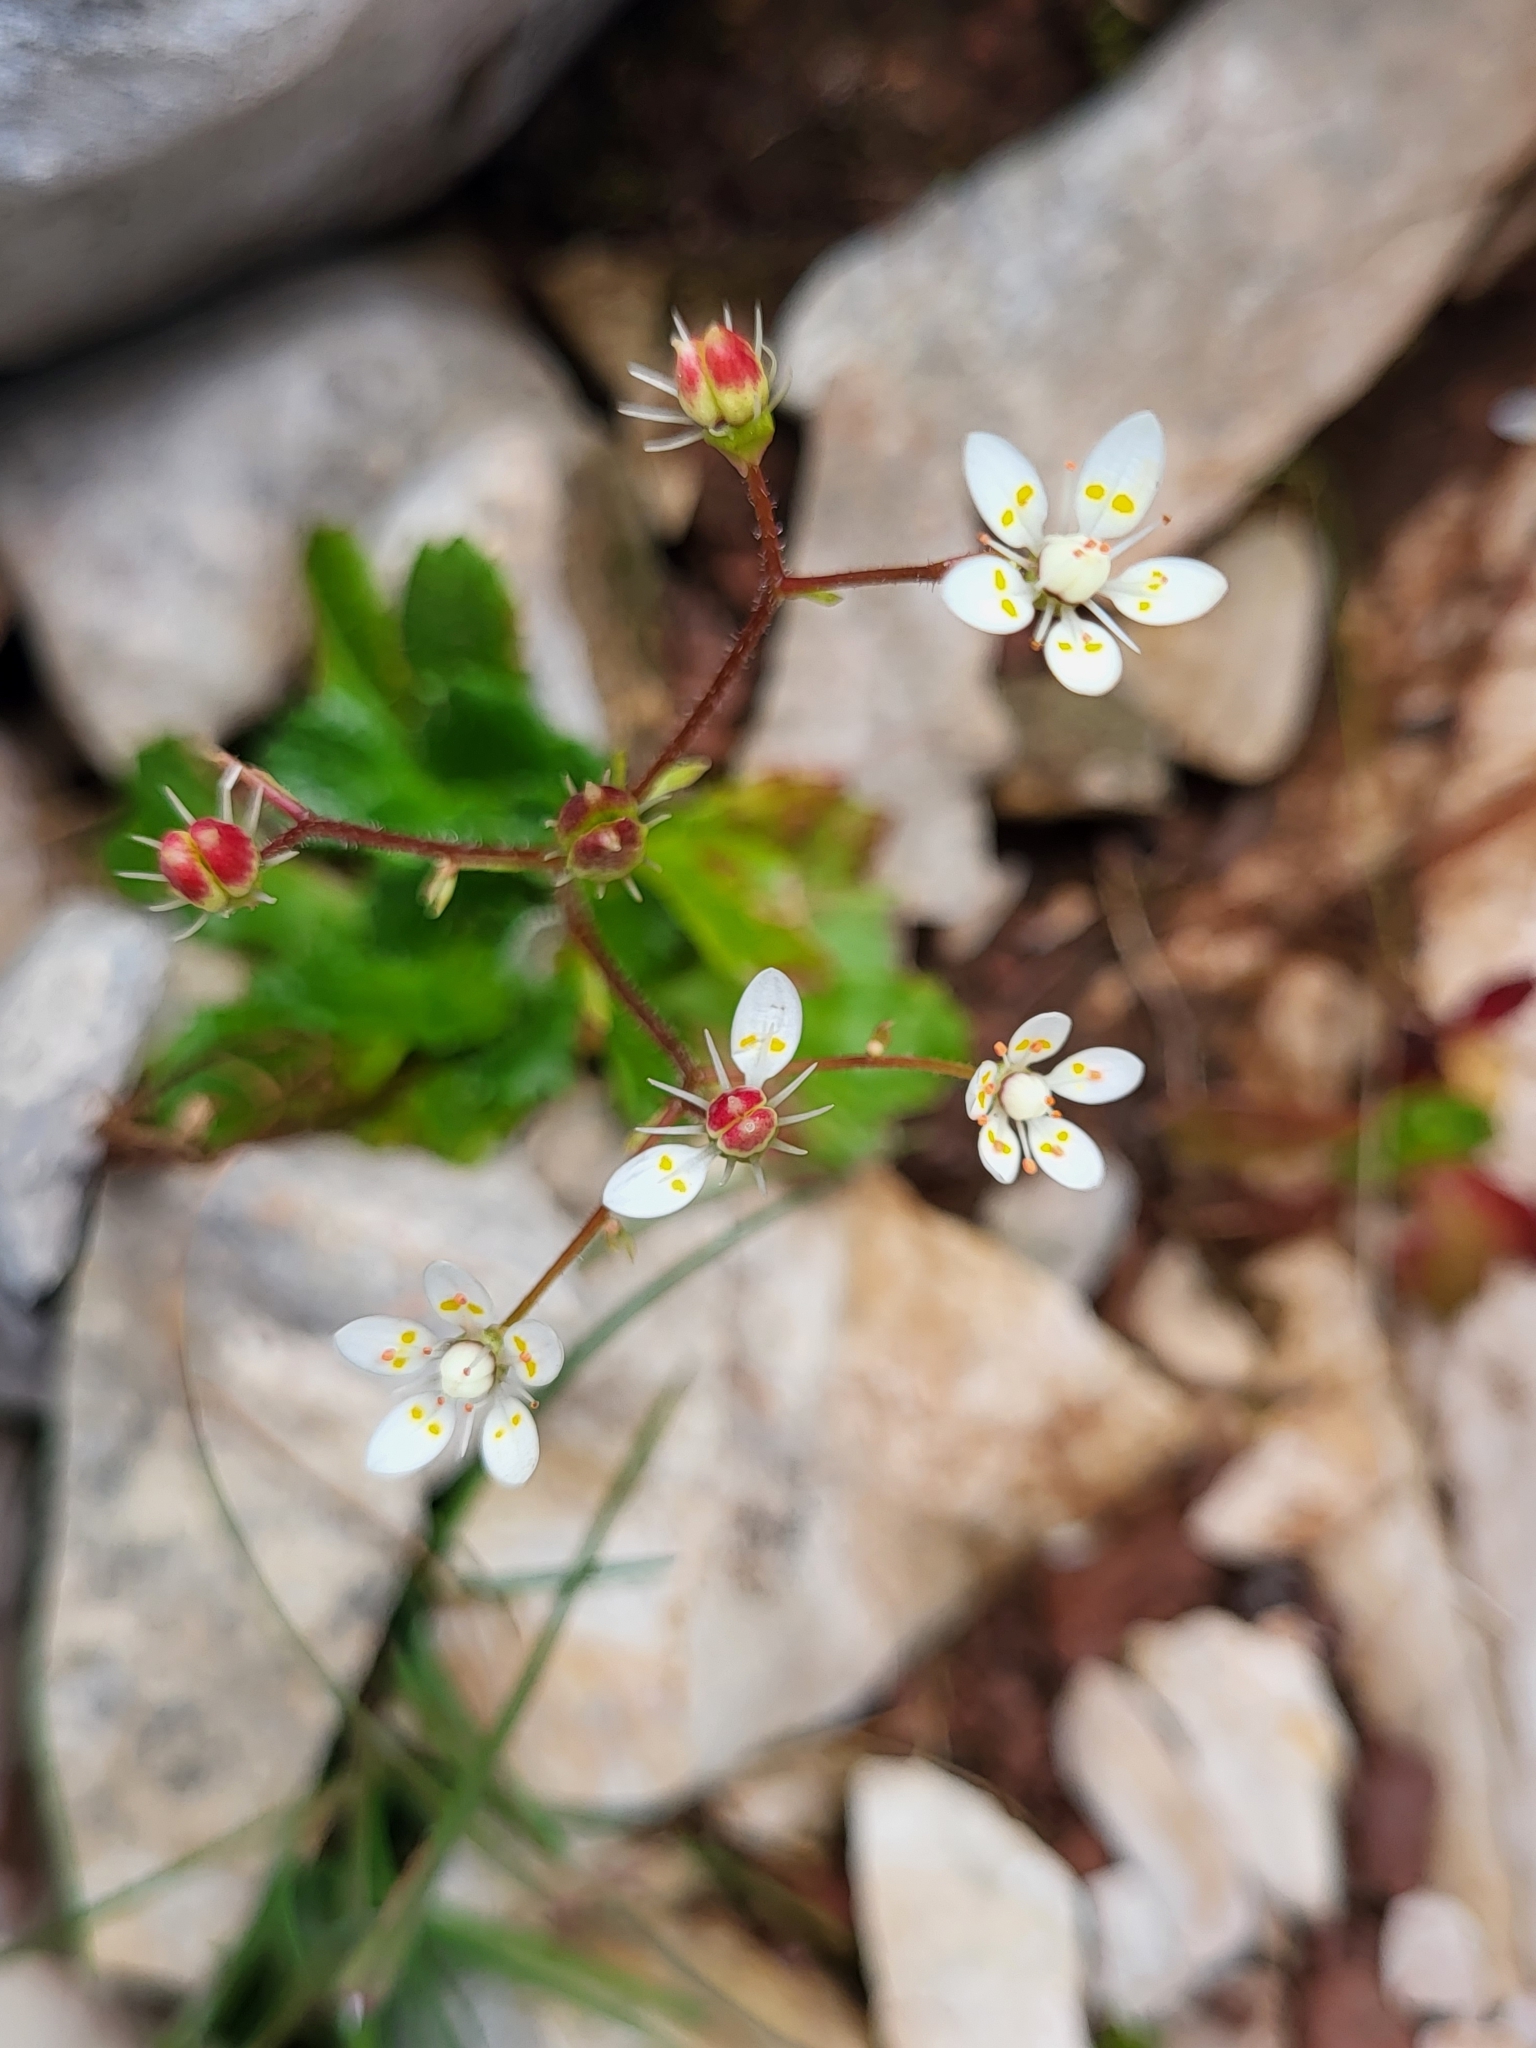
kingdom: Plantae
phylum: Tracheophyta
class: Magnoliopsida
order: Saxifragales
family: Saxifragaceae
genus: Micranthes
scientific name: Micranthes stellaris
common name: Starry saxifrage
